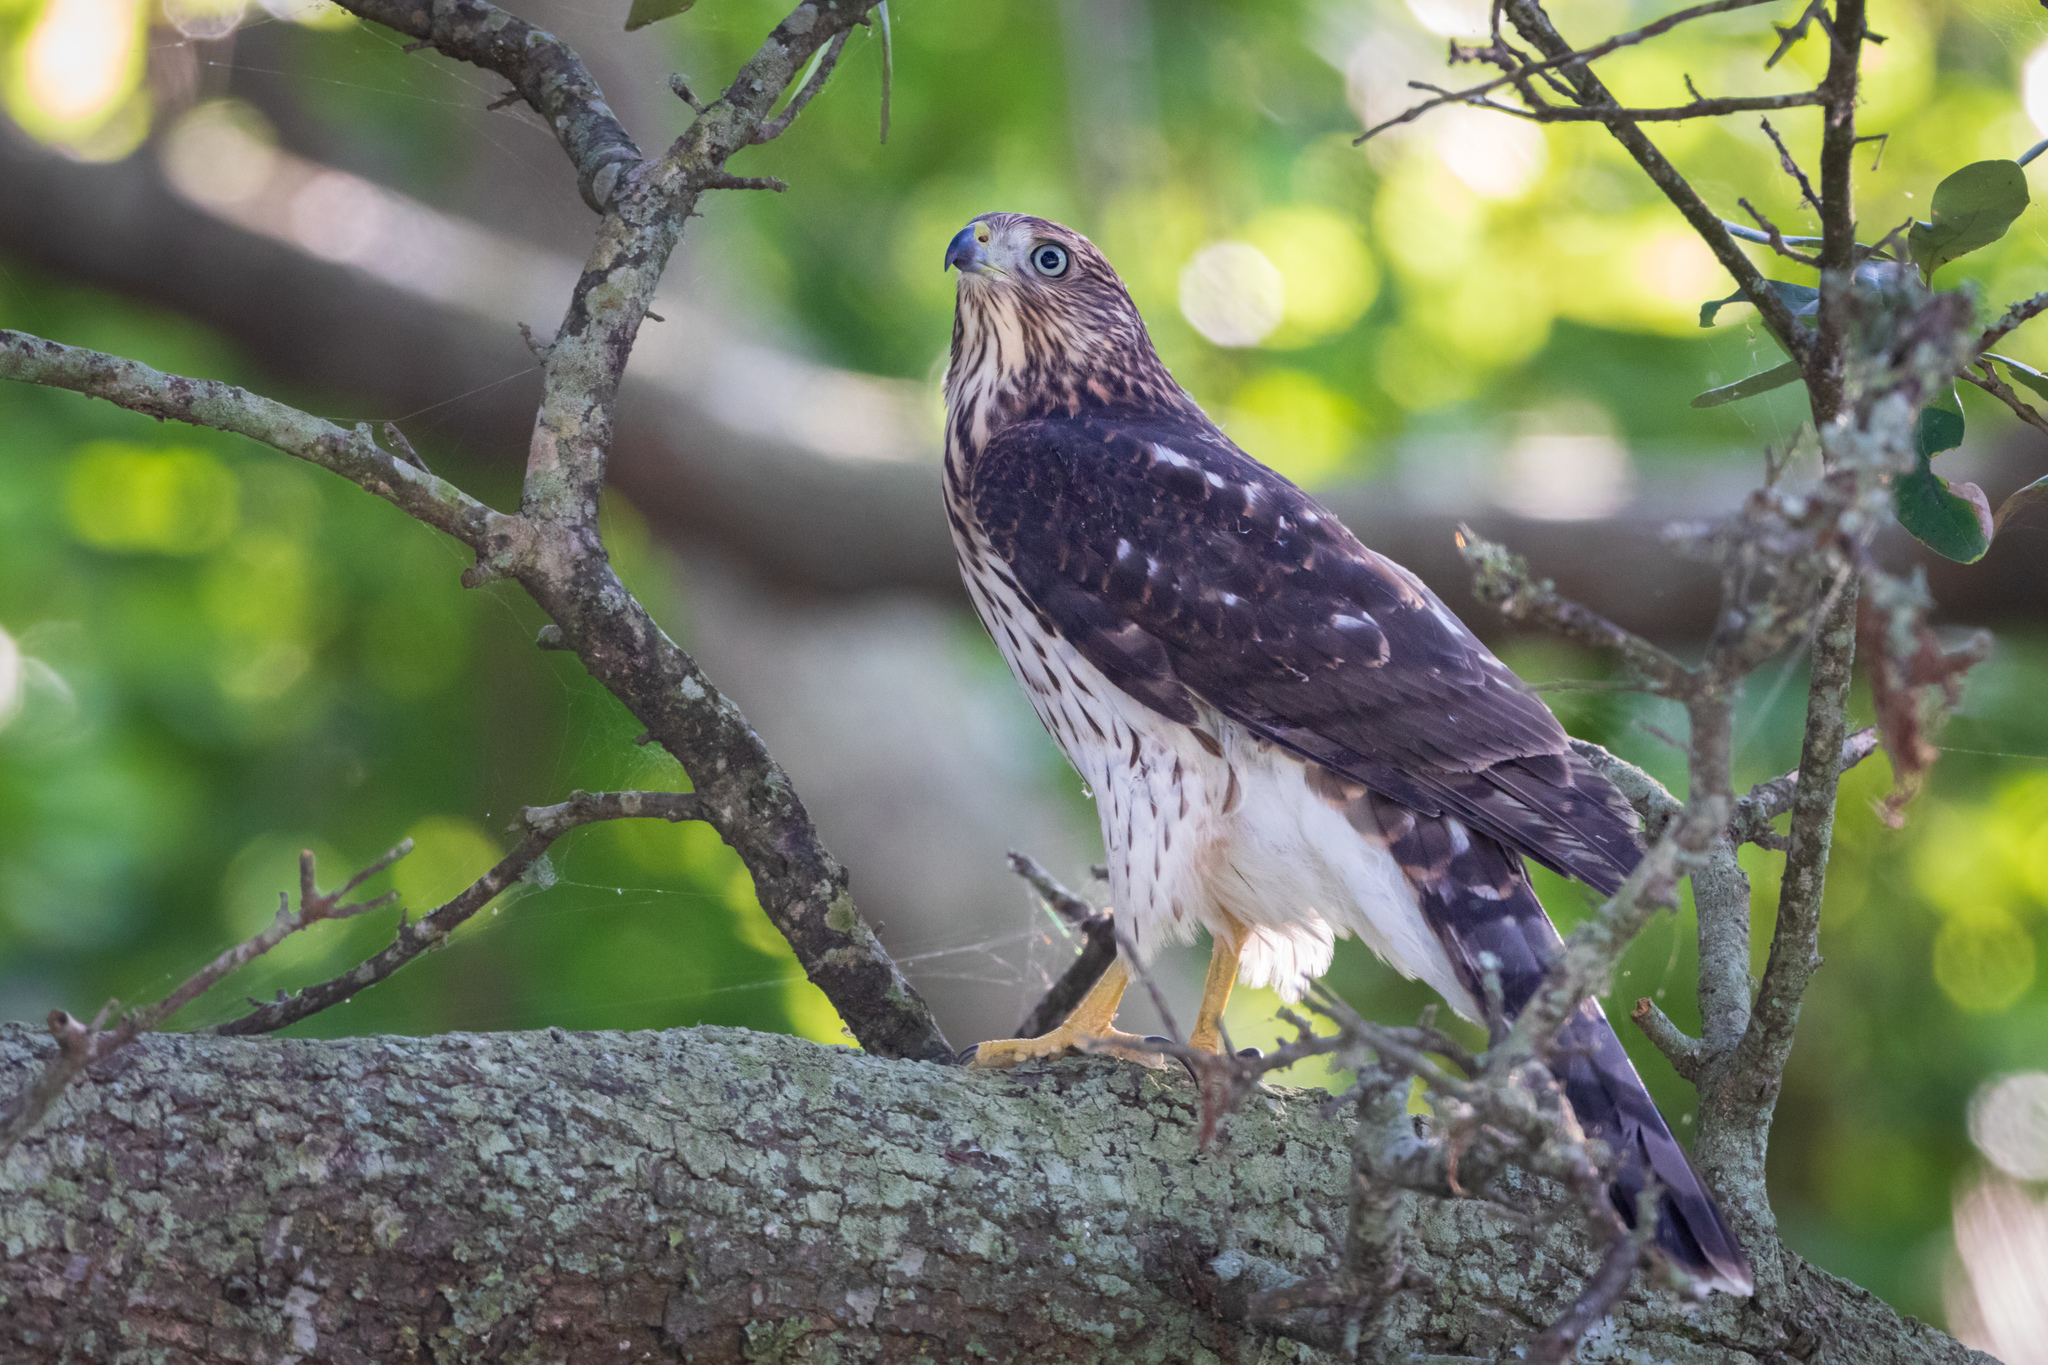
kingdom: Animalia
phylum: Chordata
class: Aves
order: Accipitriformes
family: Accipitridae
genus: Accipiter
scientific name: Accipiter cooperii
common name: Cooper's hawk
